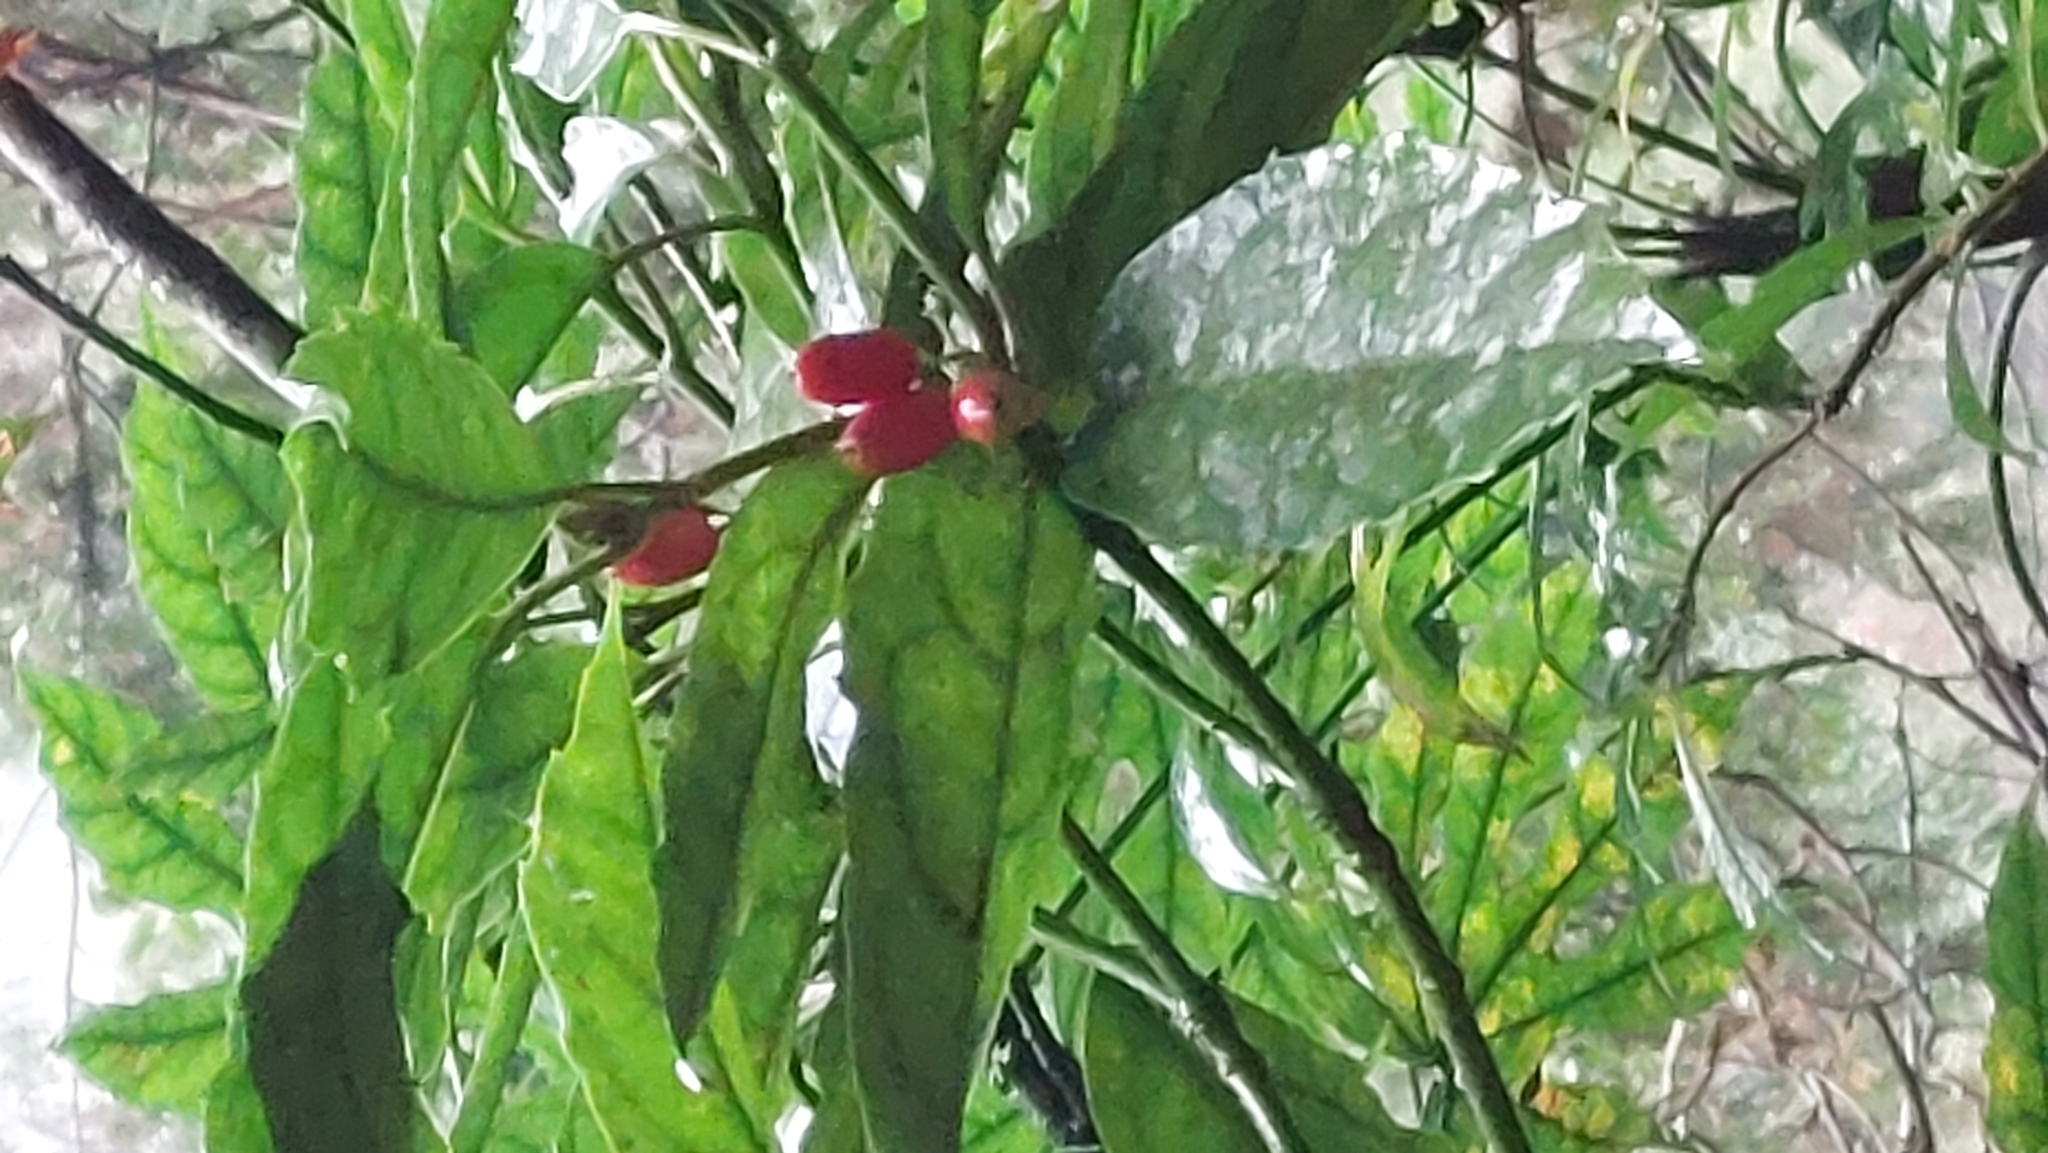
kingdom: Plantae
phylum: Tracheophyta
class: Magnoliopsida
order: Garryales
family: Garryaceae
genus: Aucuba
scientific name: Aucuba japonica
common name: Spotted-laurel
